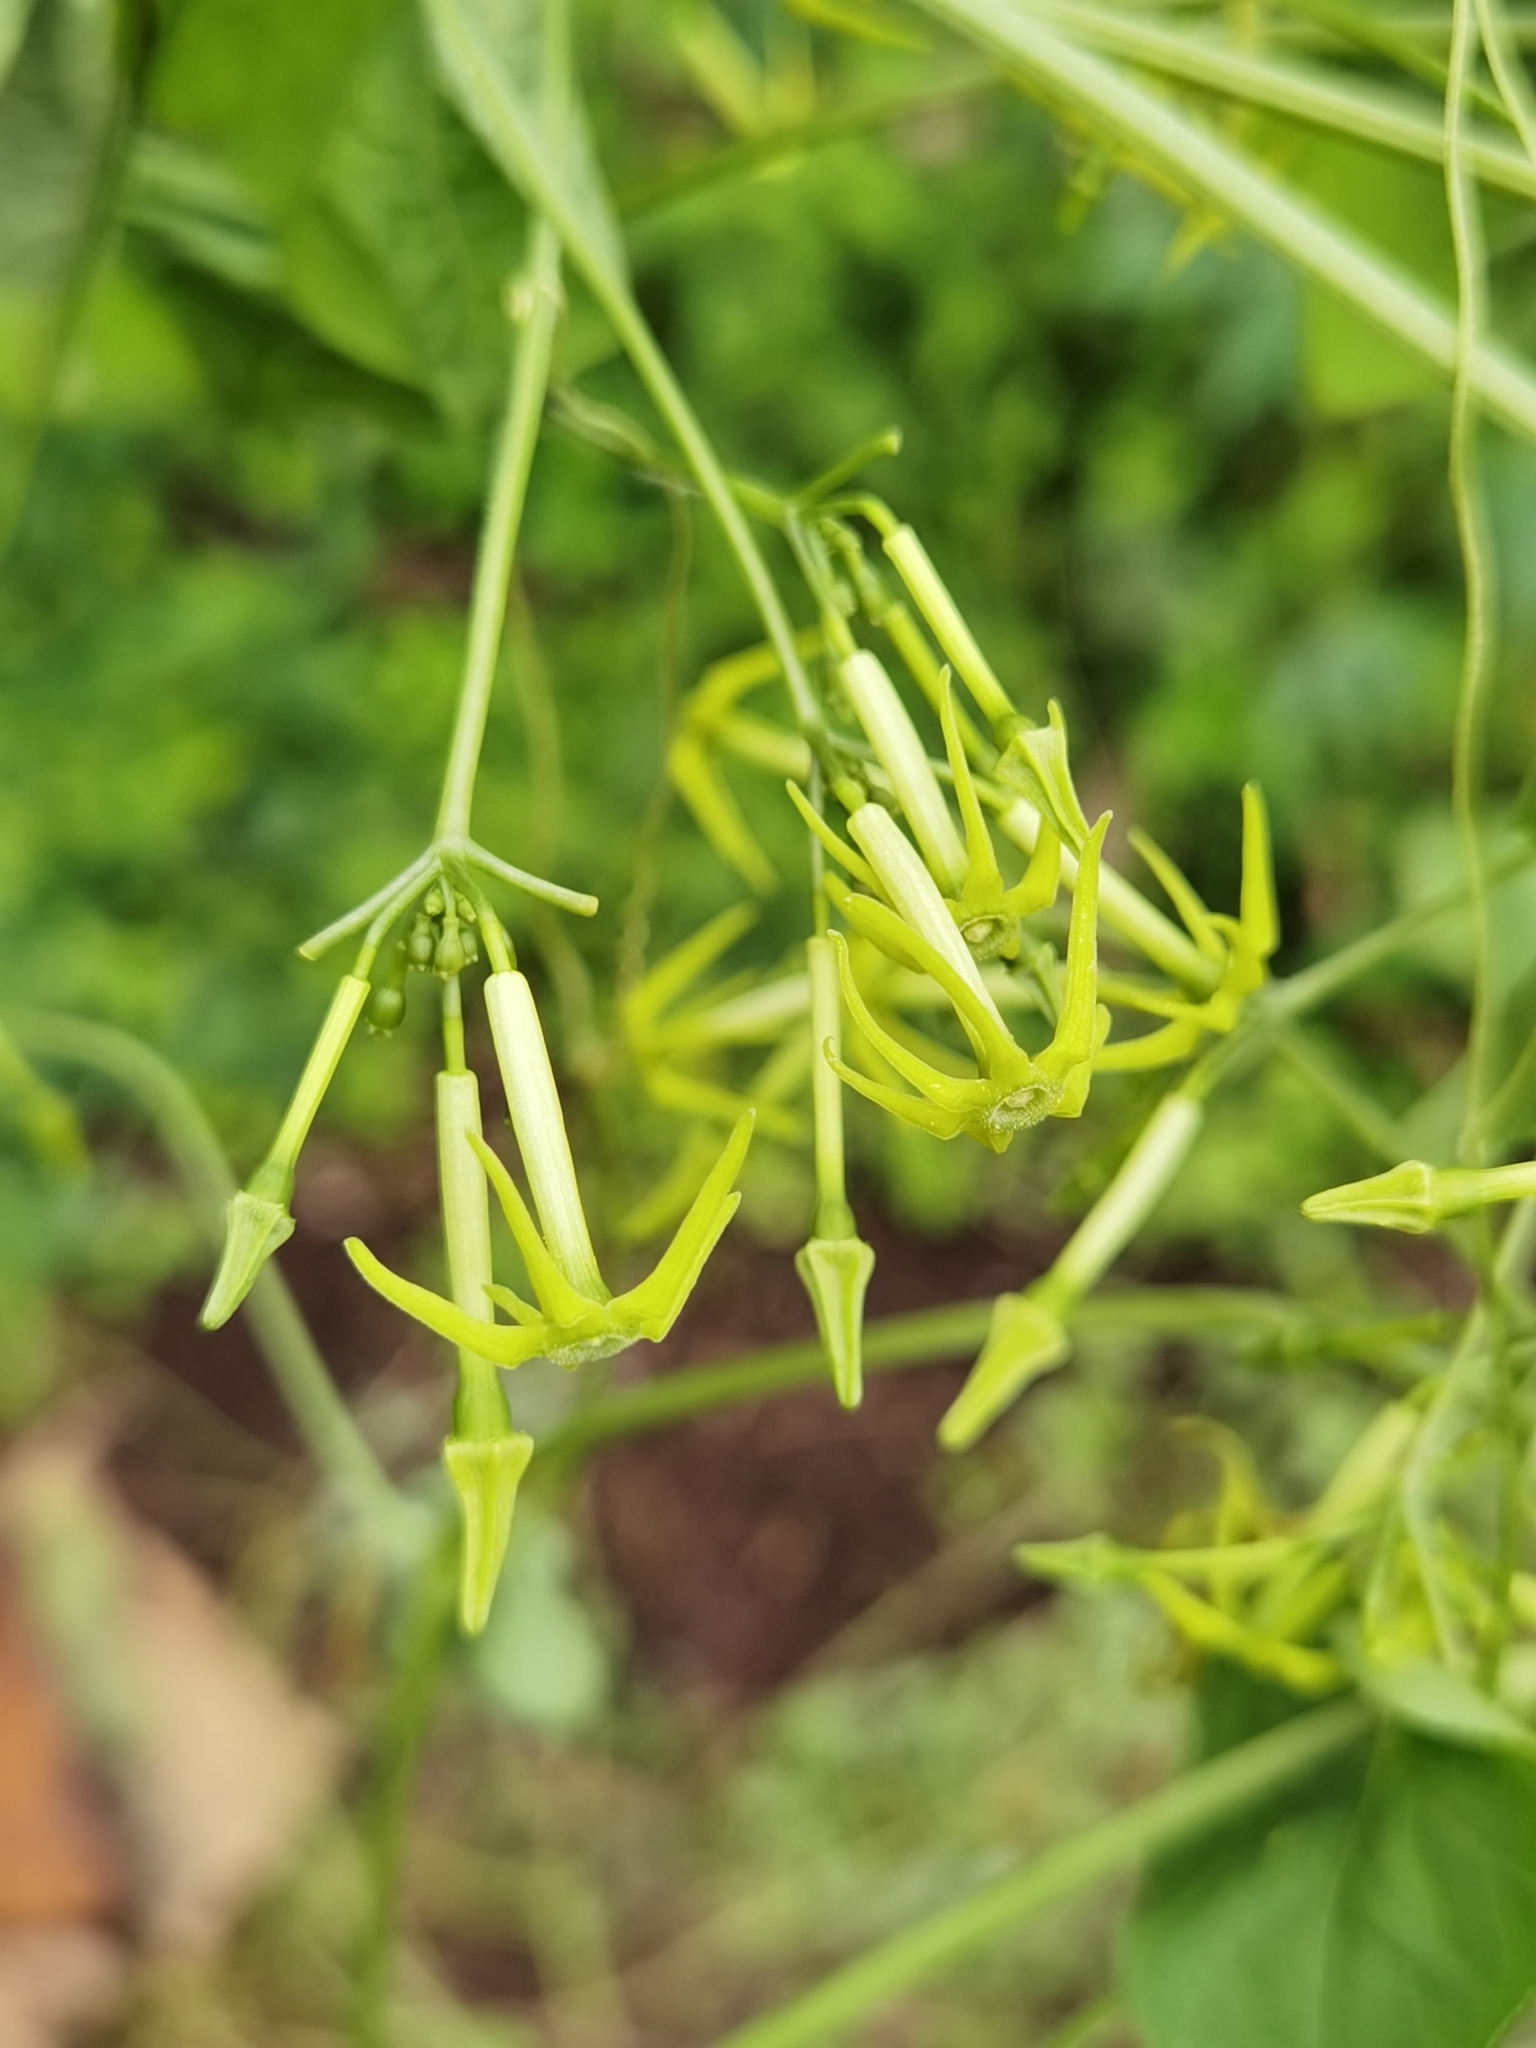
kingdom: Plantae
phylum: Tracheophyta
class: Magnoliopsida
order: Cucurbitales
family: Cucurbitaceae
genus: Cyclanthera
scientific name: Cyclanthera carthagenensis
